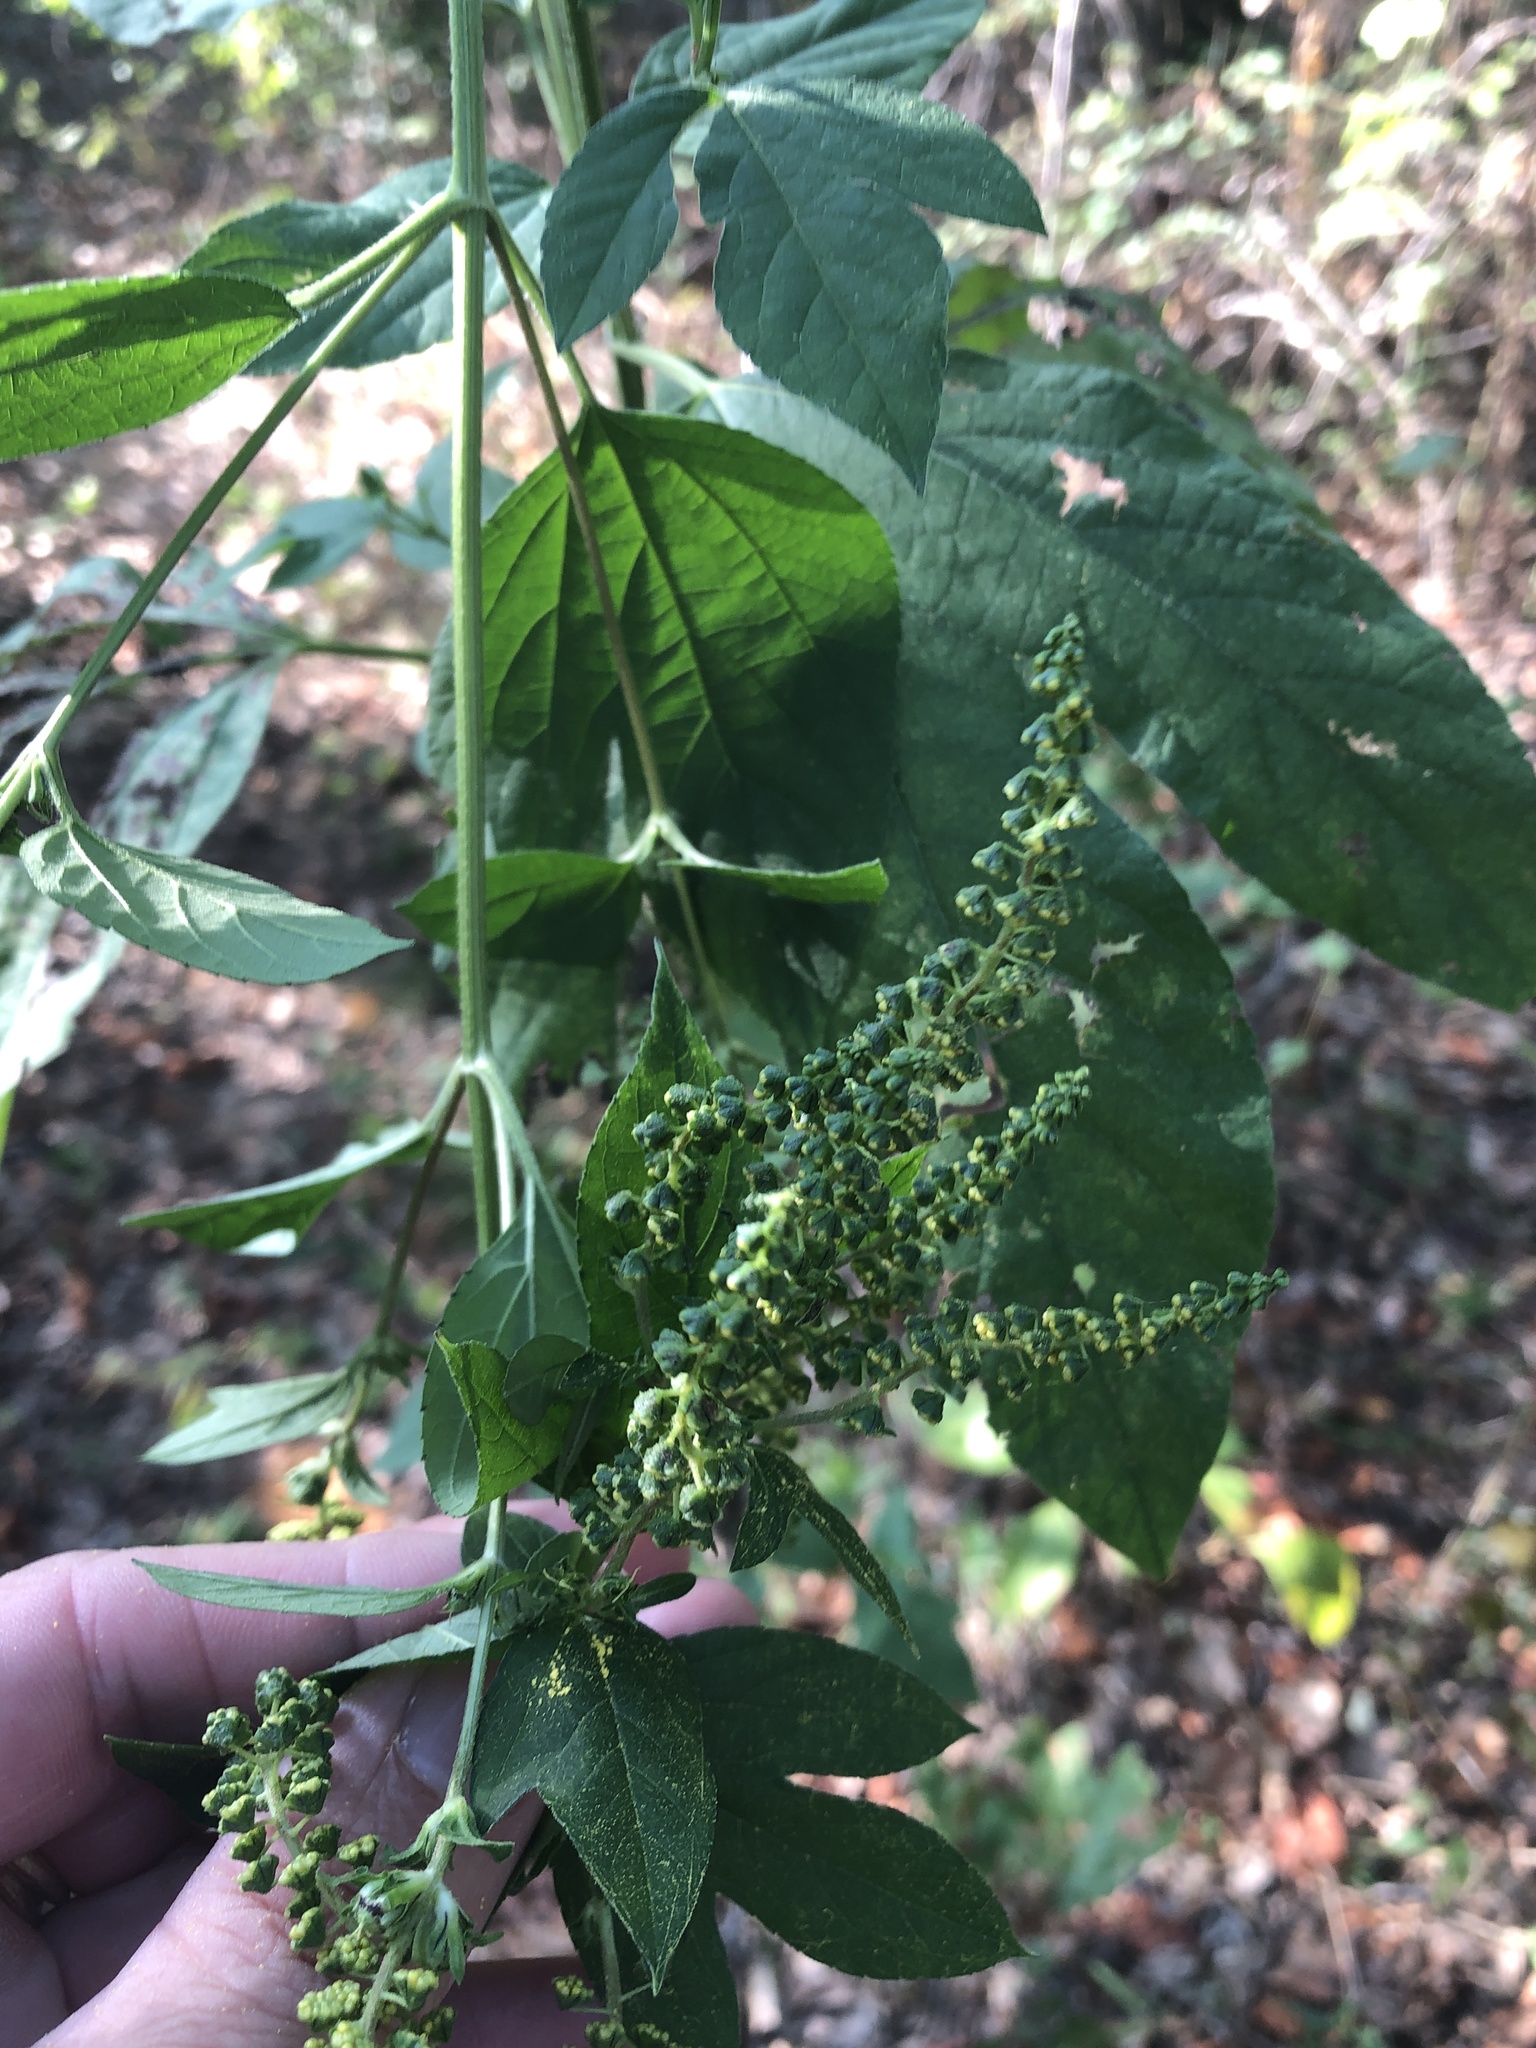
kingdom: Plantae
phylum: Tracheophyta
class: Magnoliopsida
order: Asterales
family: Asteraceae
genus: Ambrosia
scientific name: Ambrosia trifida
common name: Giant ragweed
